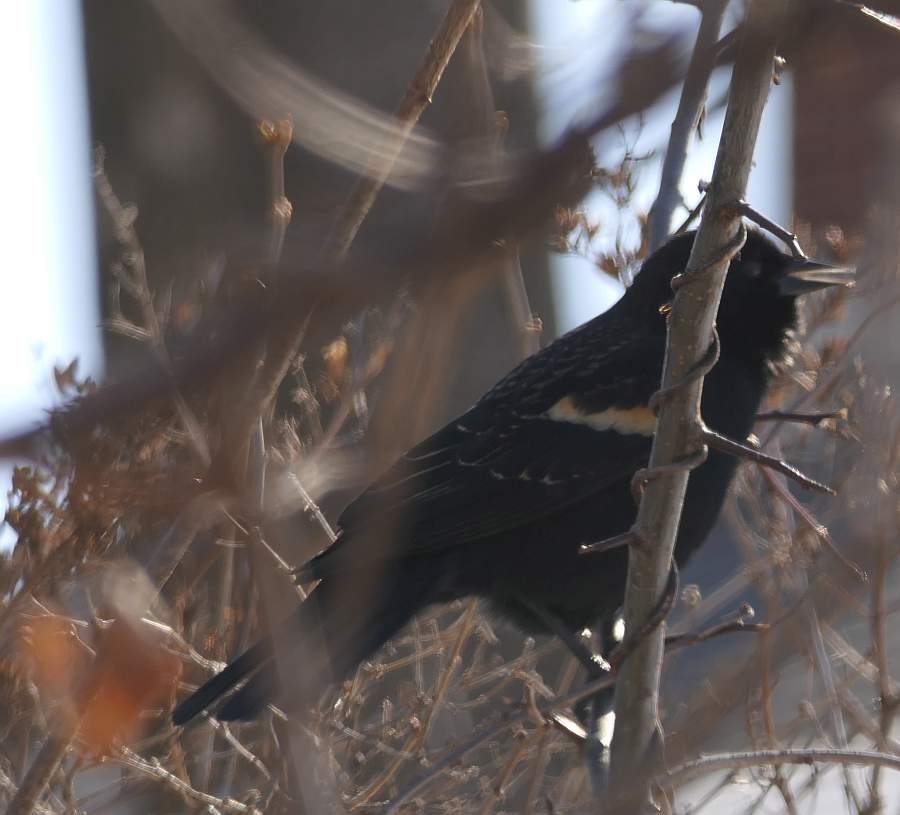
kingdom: Animalia
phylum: Chordata
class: Aves
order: Passeriformes
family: Icteridae
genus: Agelaius
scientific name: Agelaius phoeniceus
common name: Red-winged blackbird
